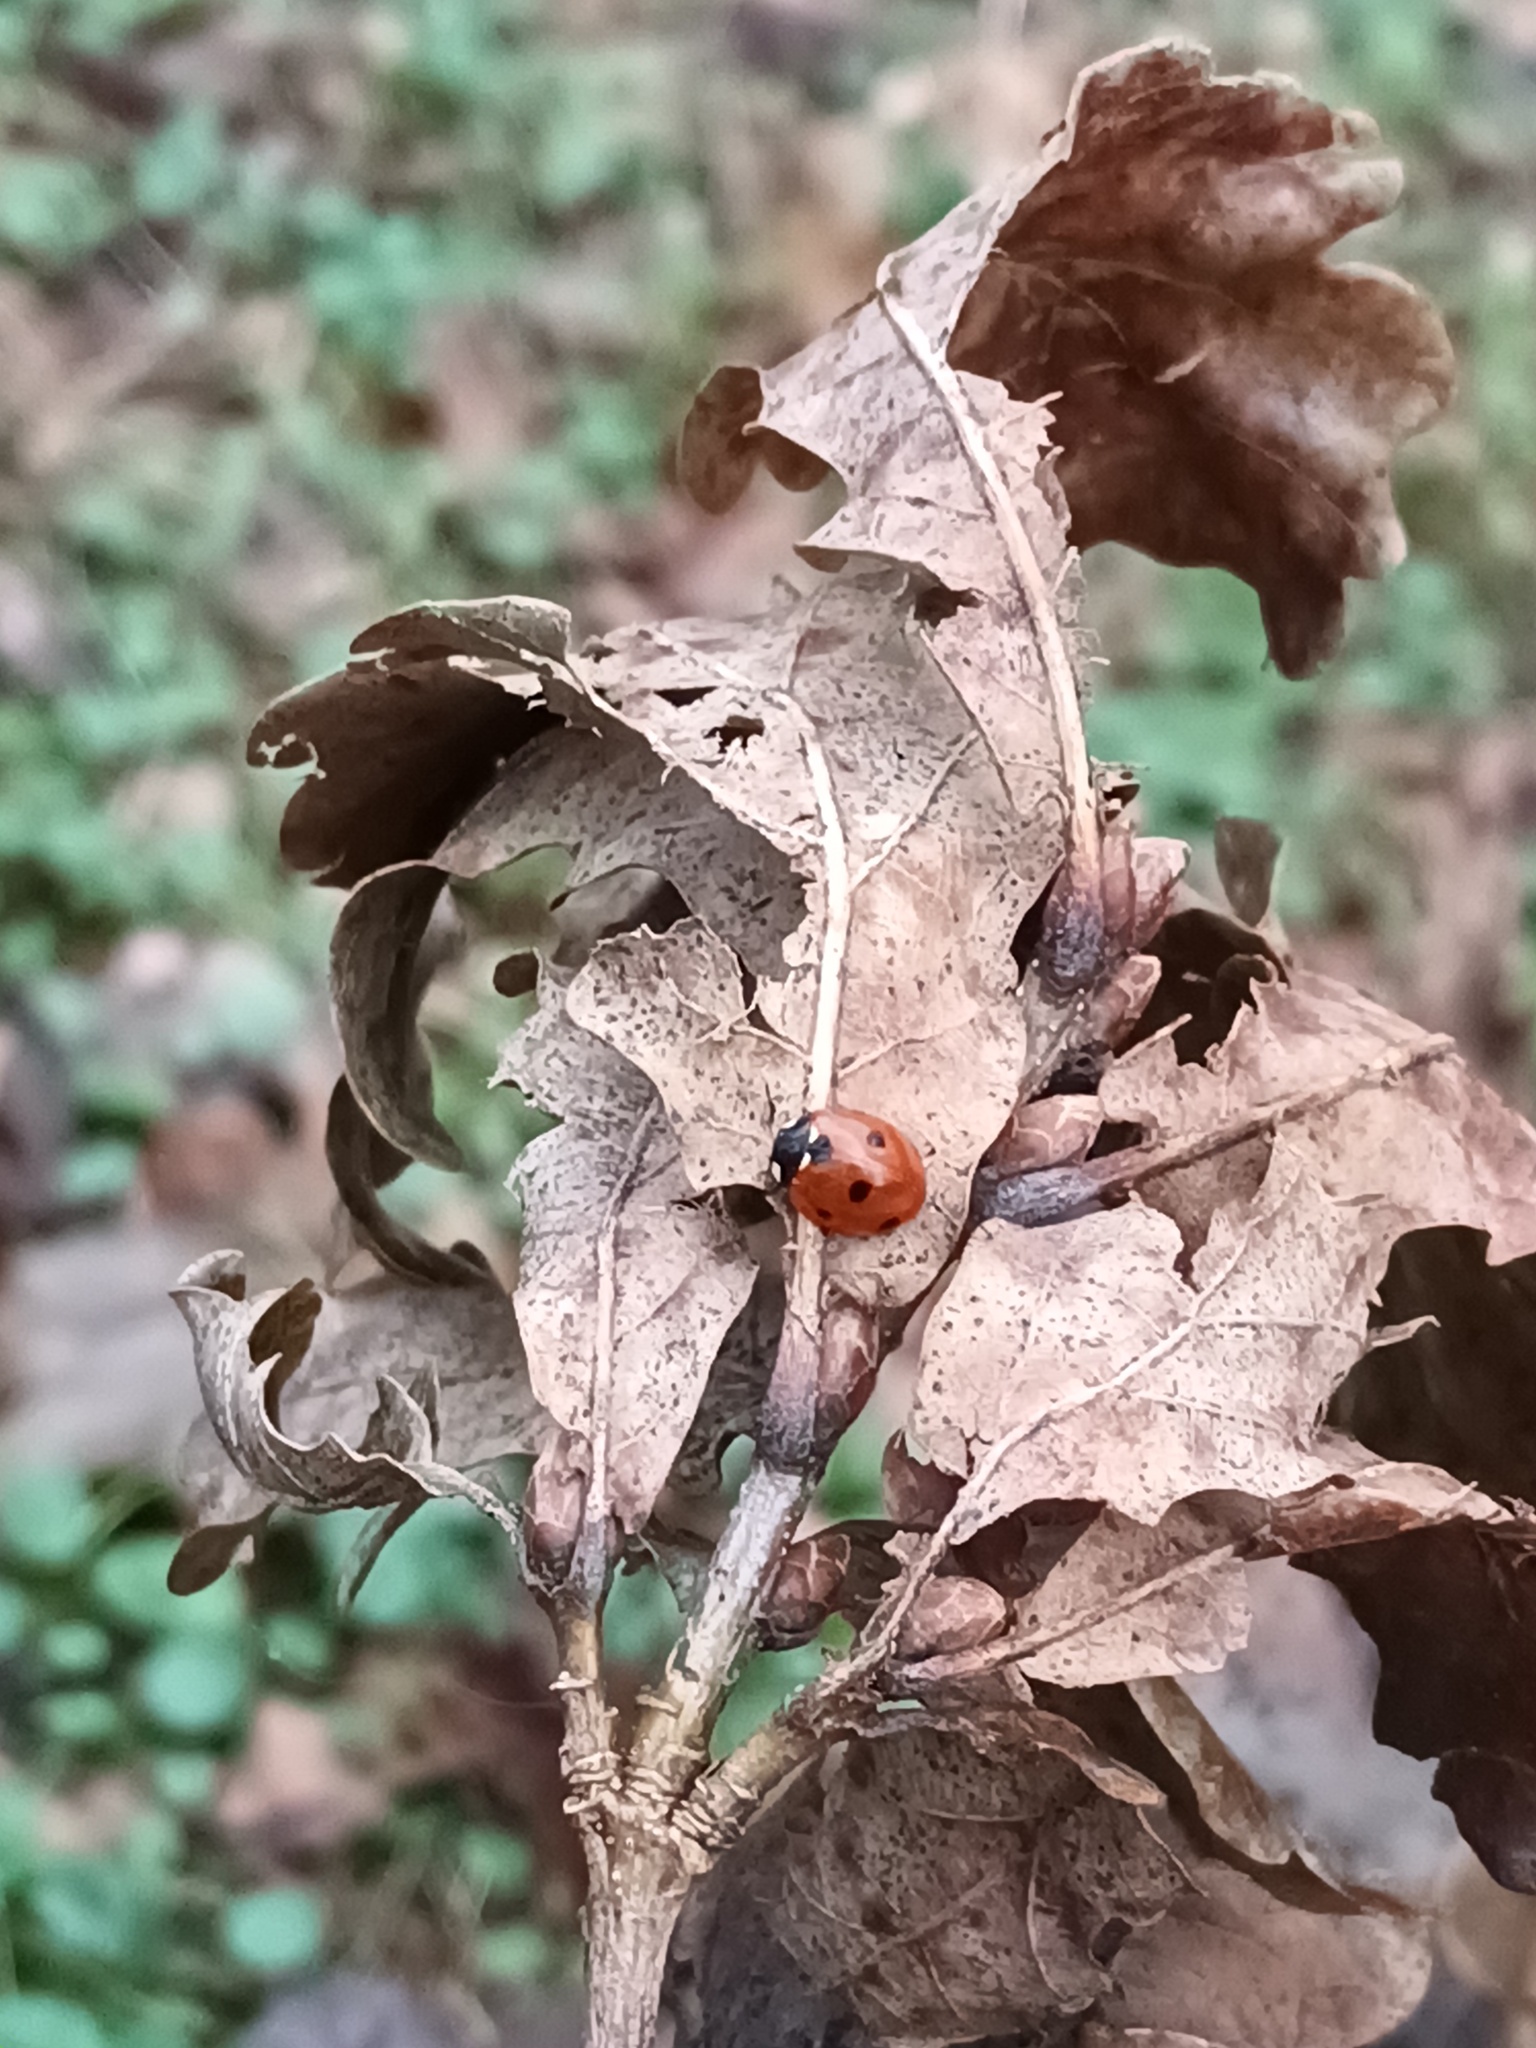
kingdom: Animalia
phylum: Arthropoda
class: Insecta
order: Coleoptera
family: Coccinellidae
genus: Coccinella
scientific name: Coccinella septempunctata
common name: Sevenspotted lady beetle
